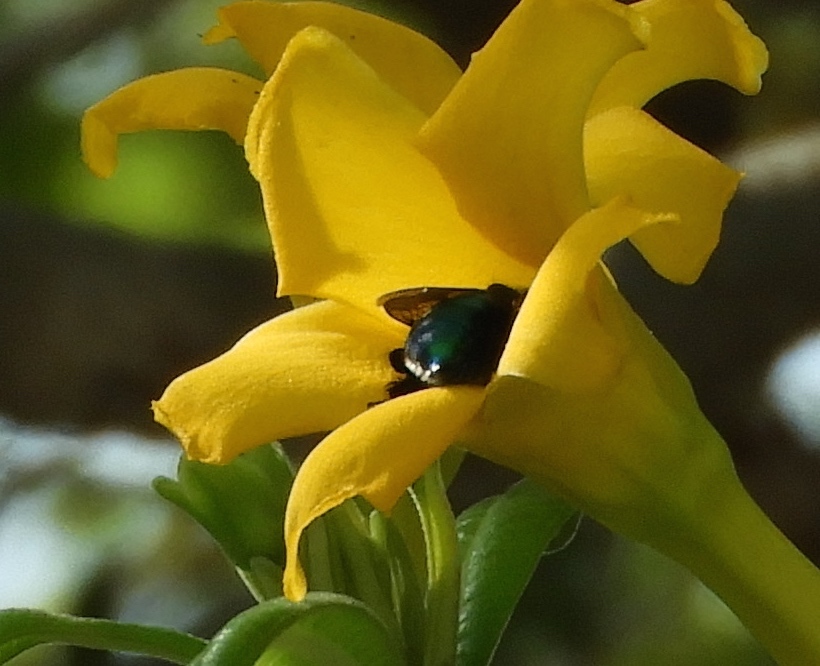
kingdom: Plantae
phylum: Tracheophyta
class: Magnoliopsida
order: Gentianales
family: Apocynaceae
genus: Cascabela
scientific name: Cascabela ovata
